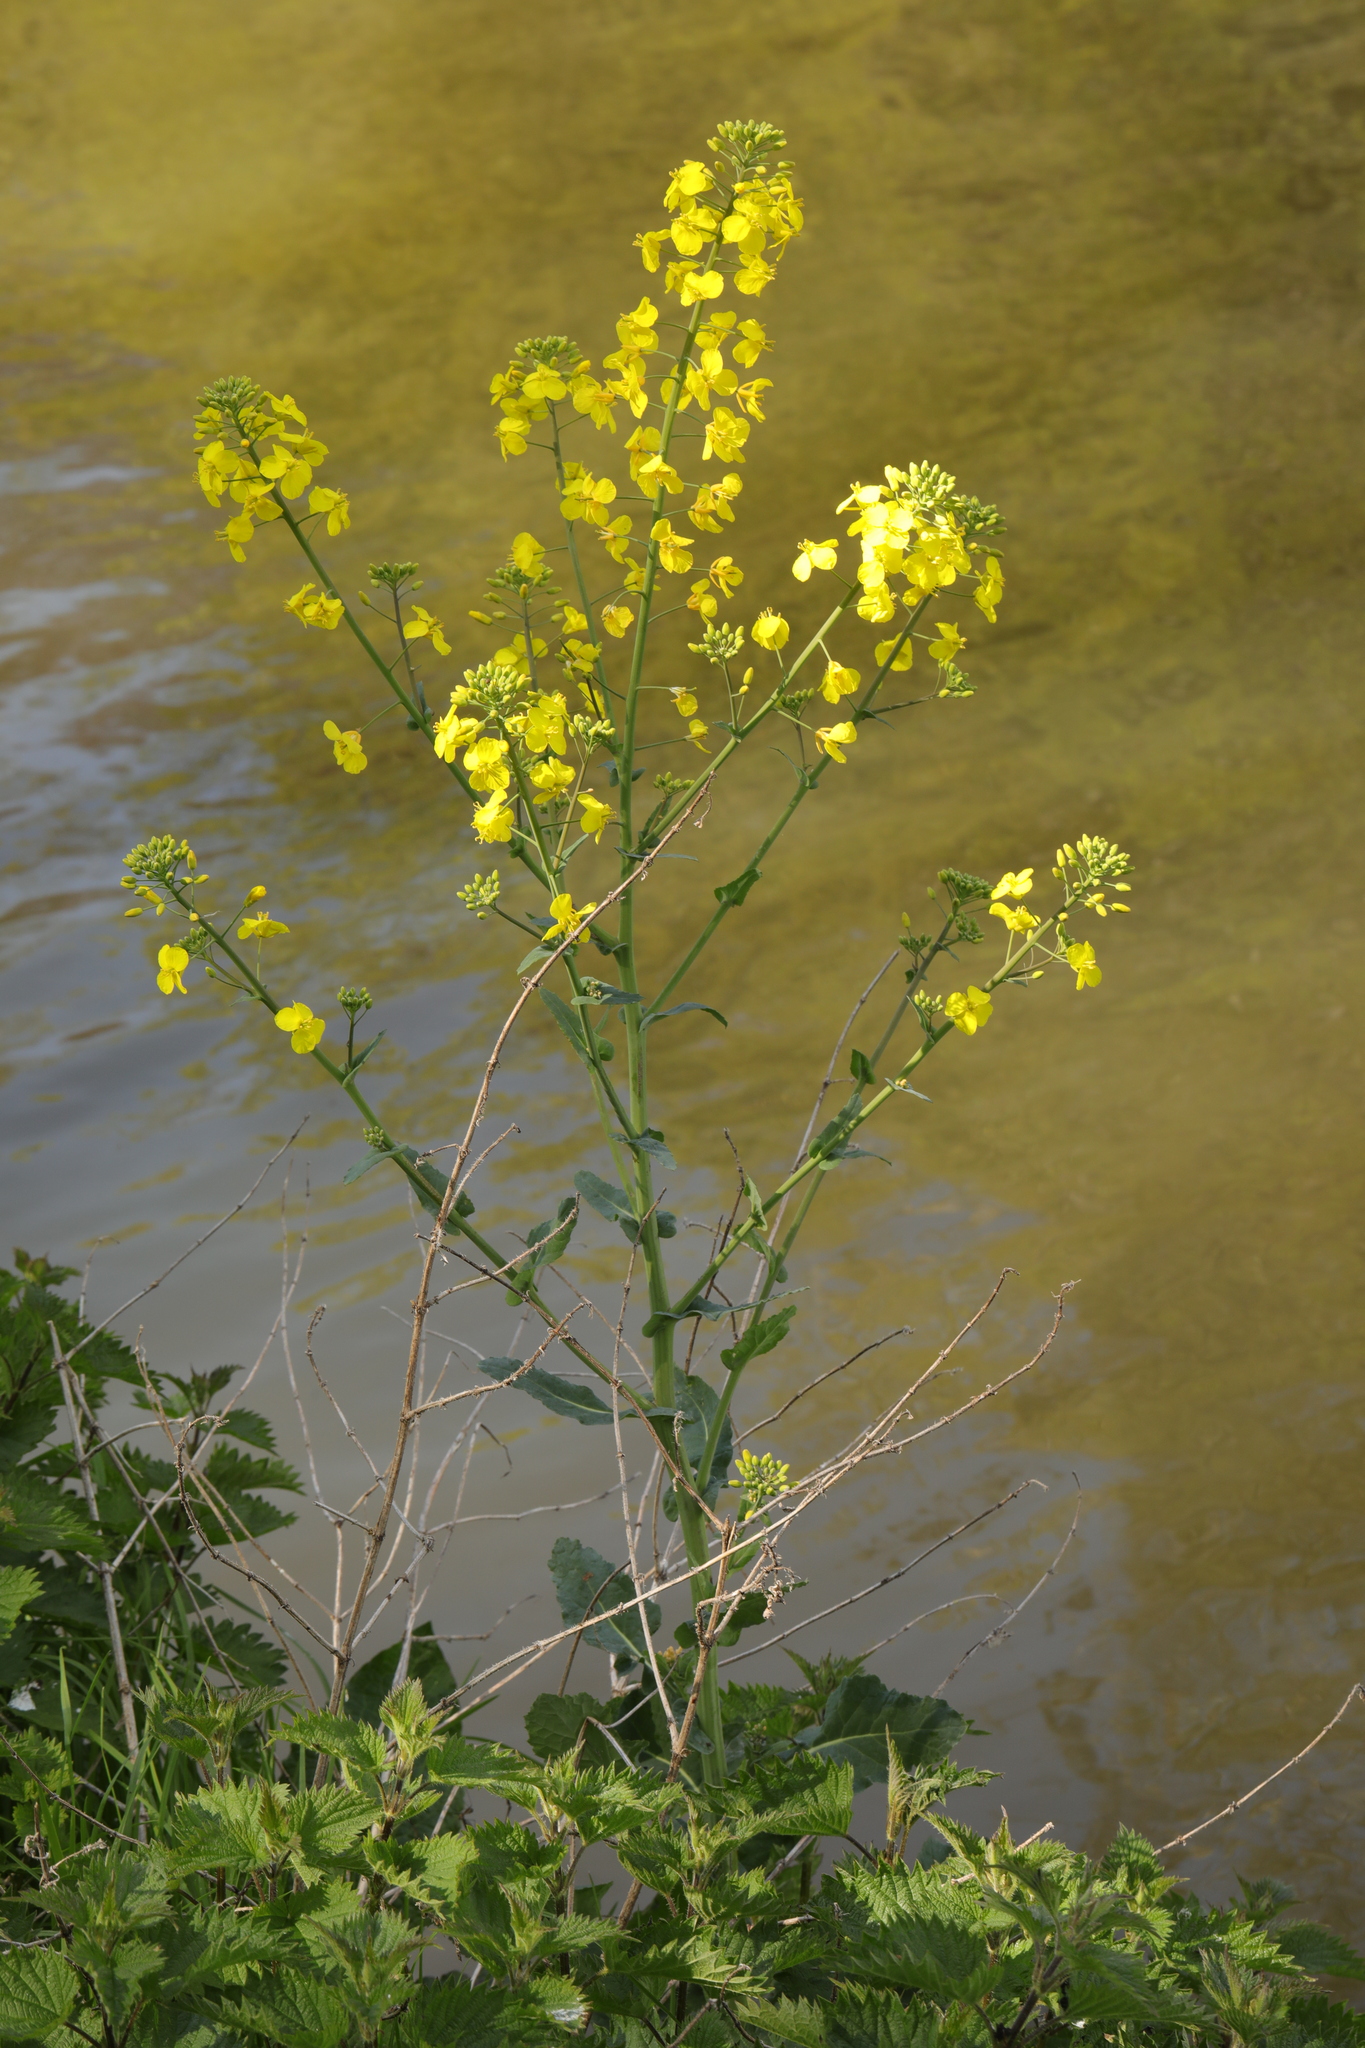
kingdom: Plantae
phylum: Tracheophyta
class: Magnoliopsida
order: Brassicales
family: Brassicaceae
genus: Brassica
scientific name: Brassica napus
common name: Rape
